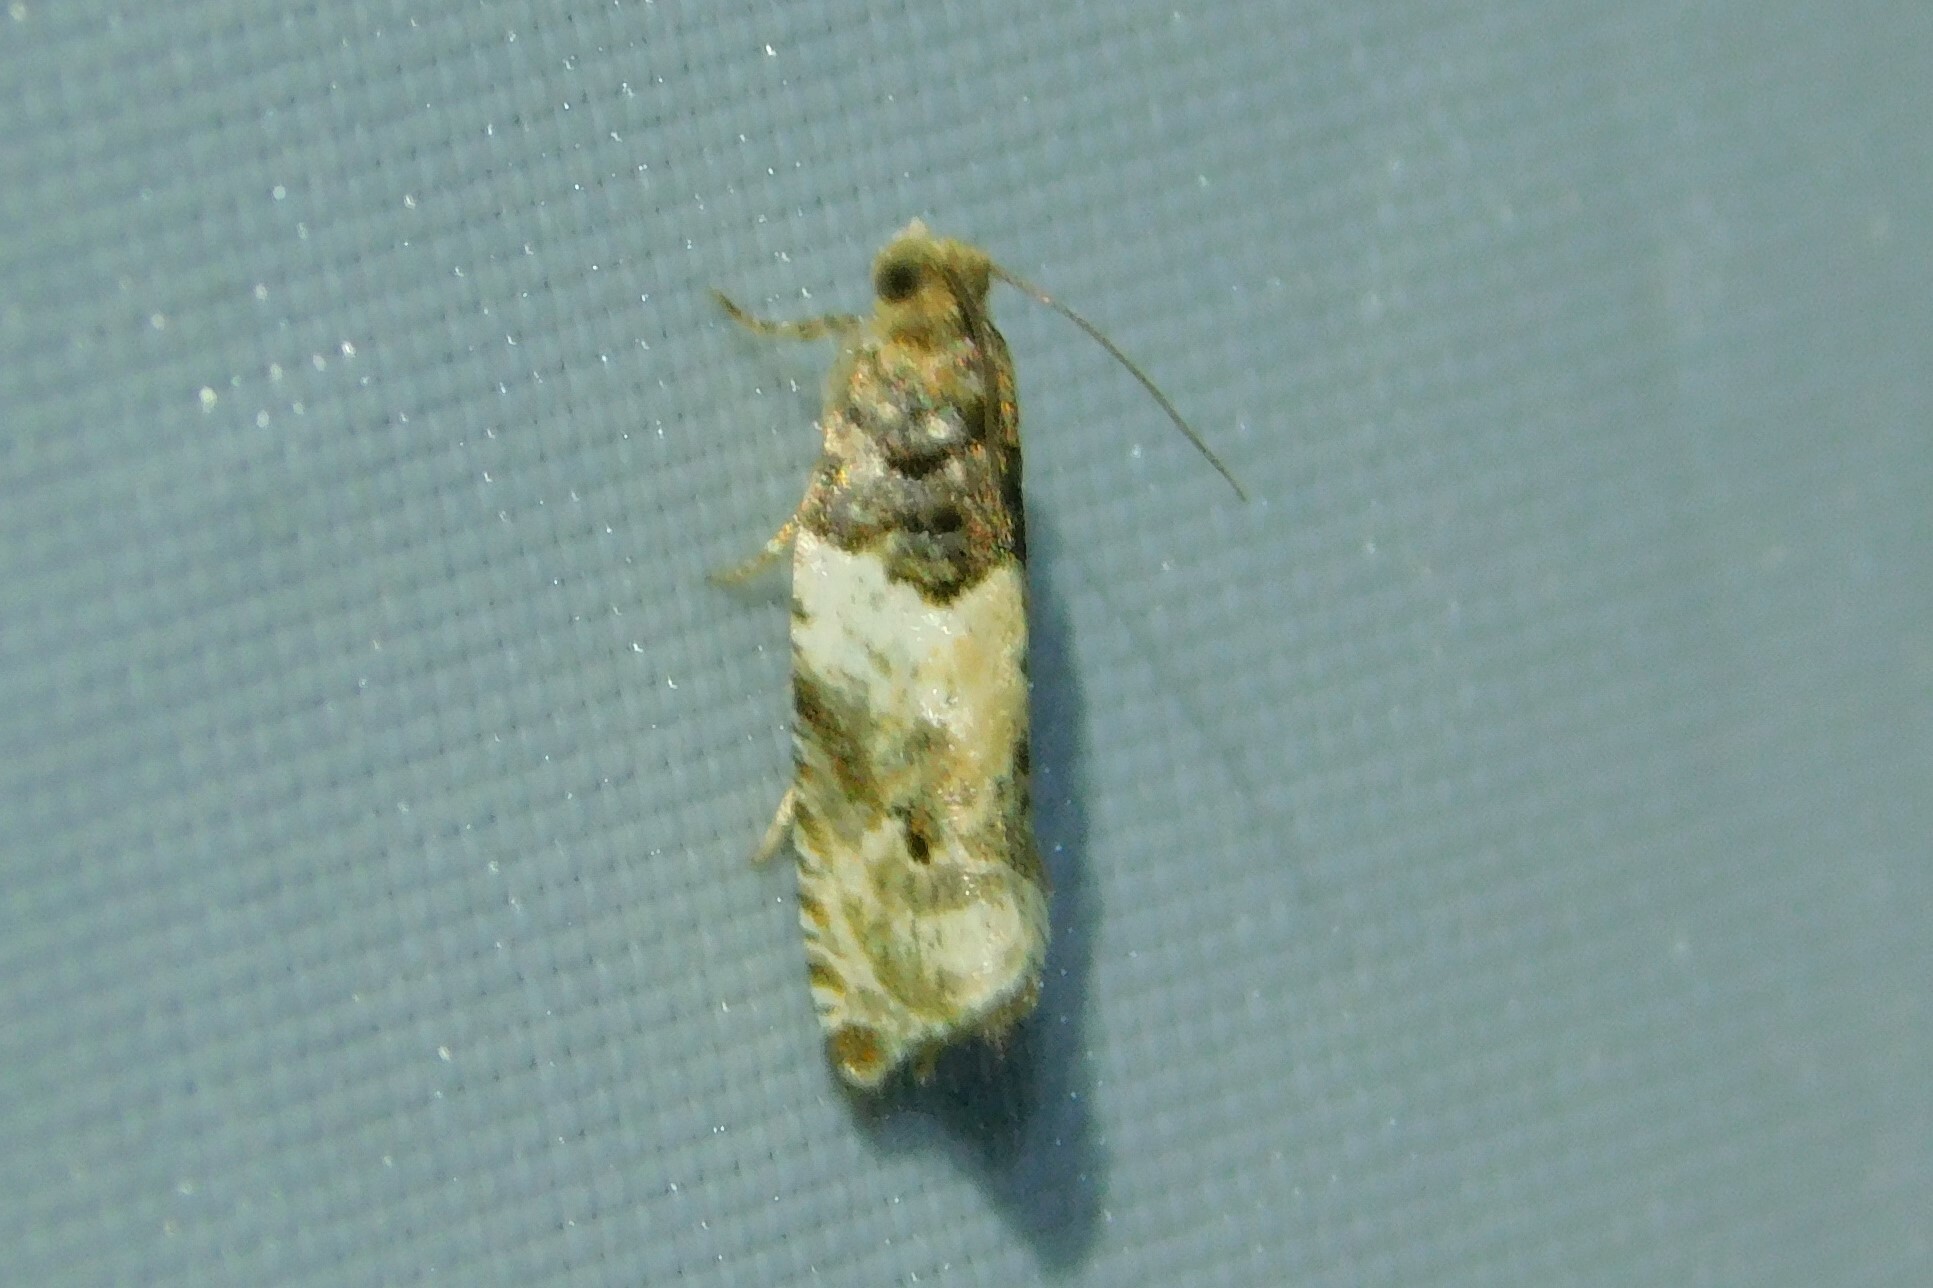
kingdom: Animalia
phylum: Arthropoda
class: Insecta
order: Lepidoptera
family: Tortricidae
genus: Gypsonoma
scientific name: Gypsonoma dealbana
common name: Common cloaked shoot
